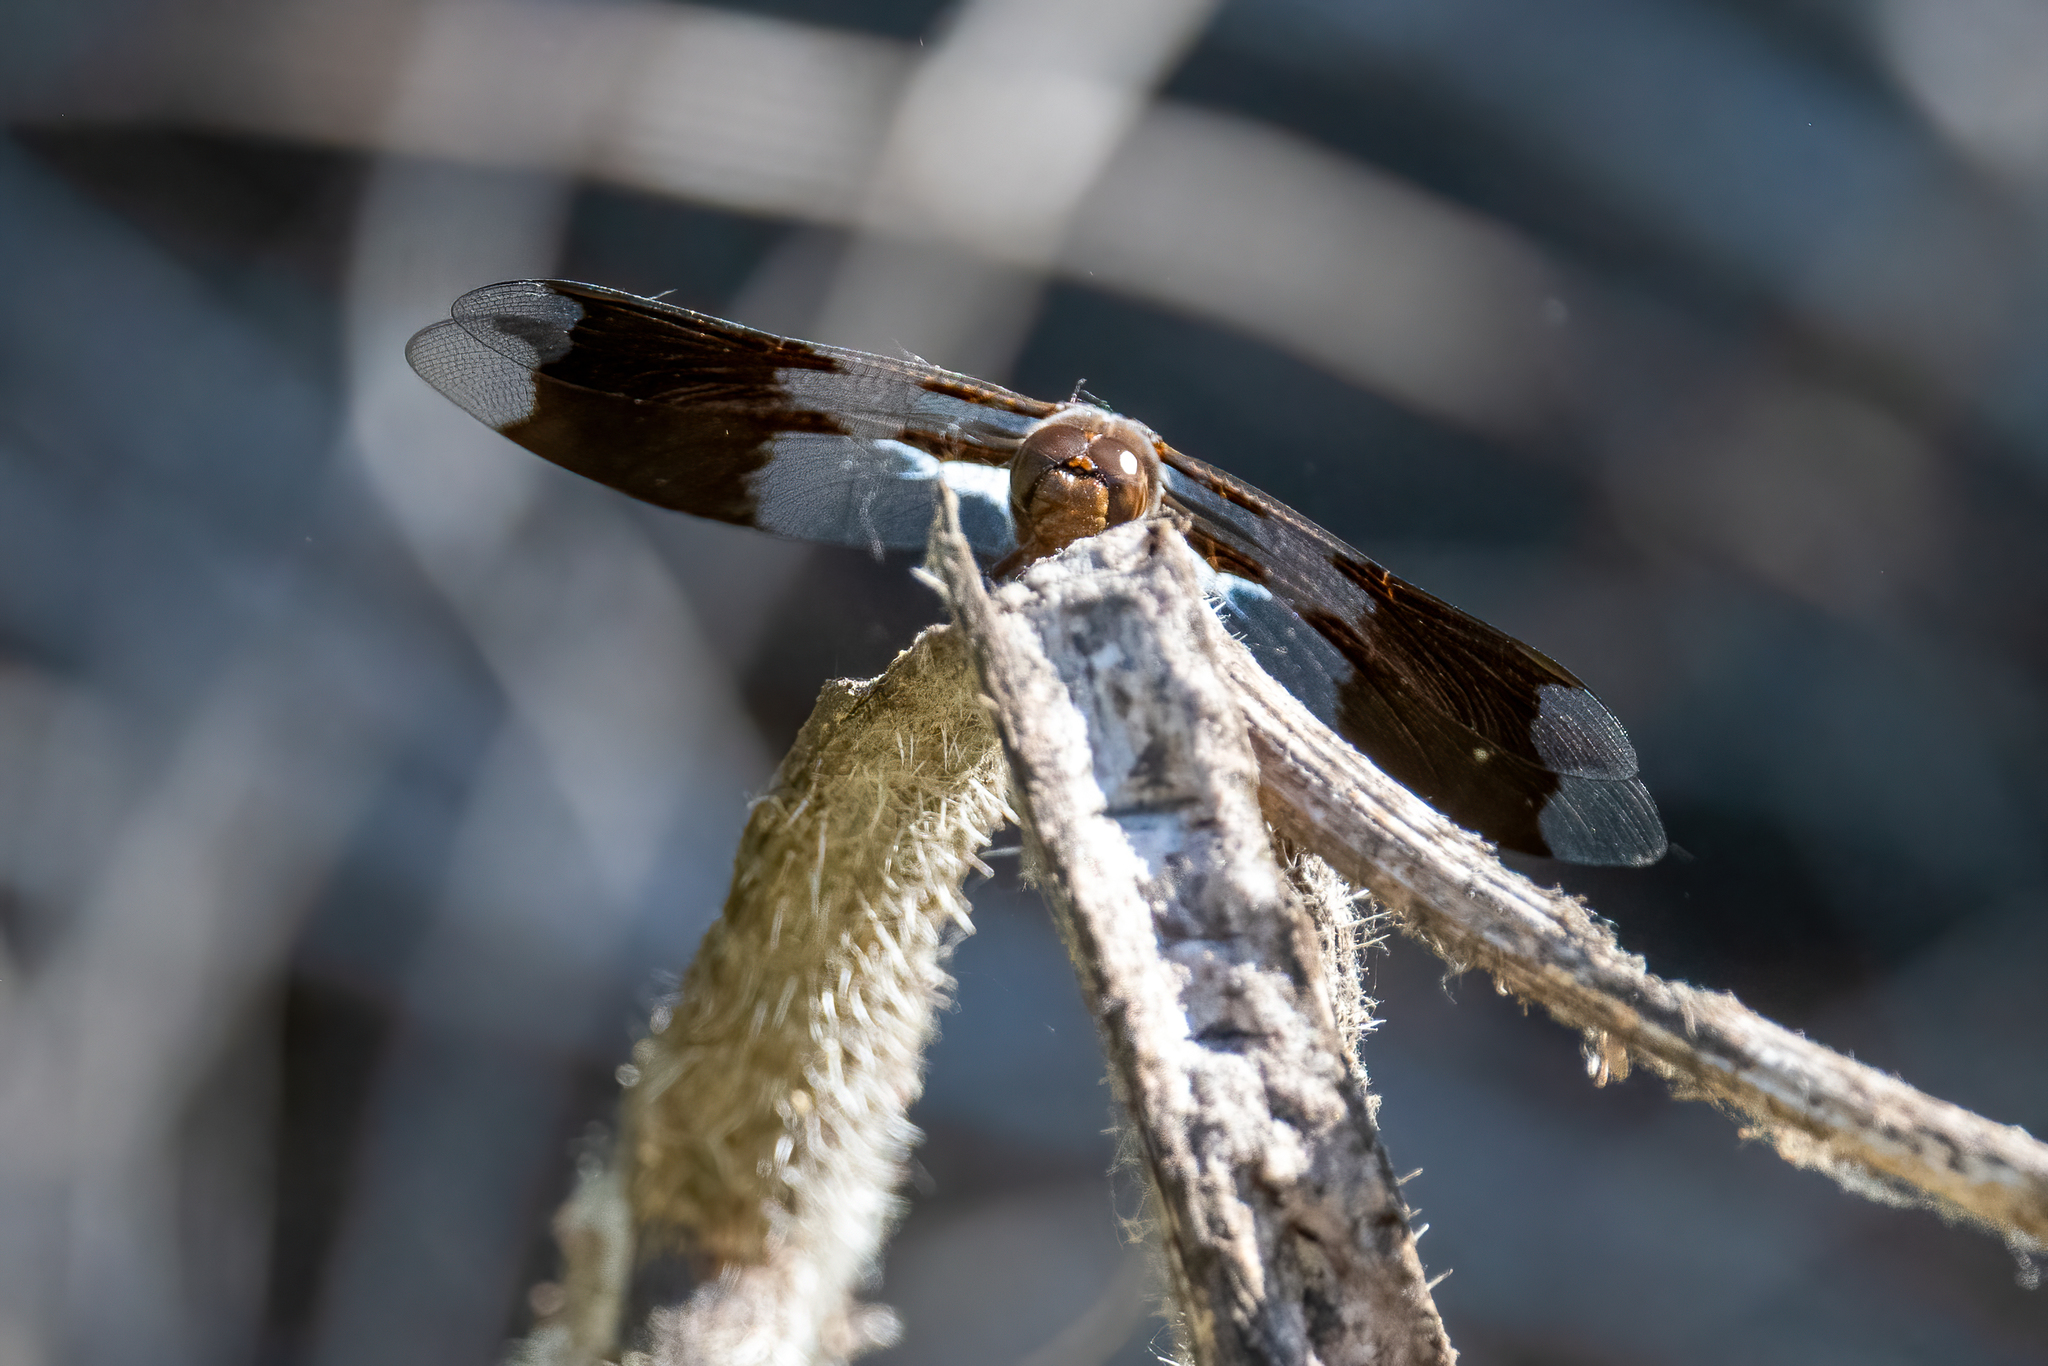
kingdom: Animalia
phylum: Arthropoda
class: Insecta
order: Odonata
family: Libellulidae
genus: Plathemis
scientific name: Plathemis lydia
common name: Common whitetail
